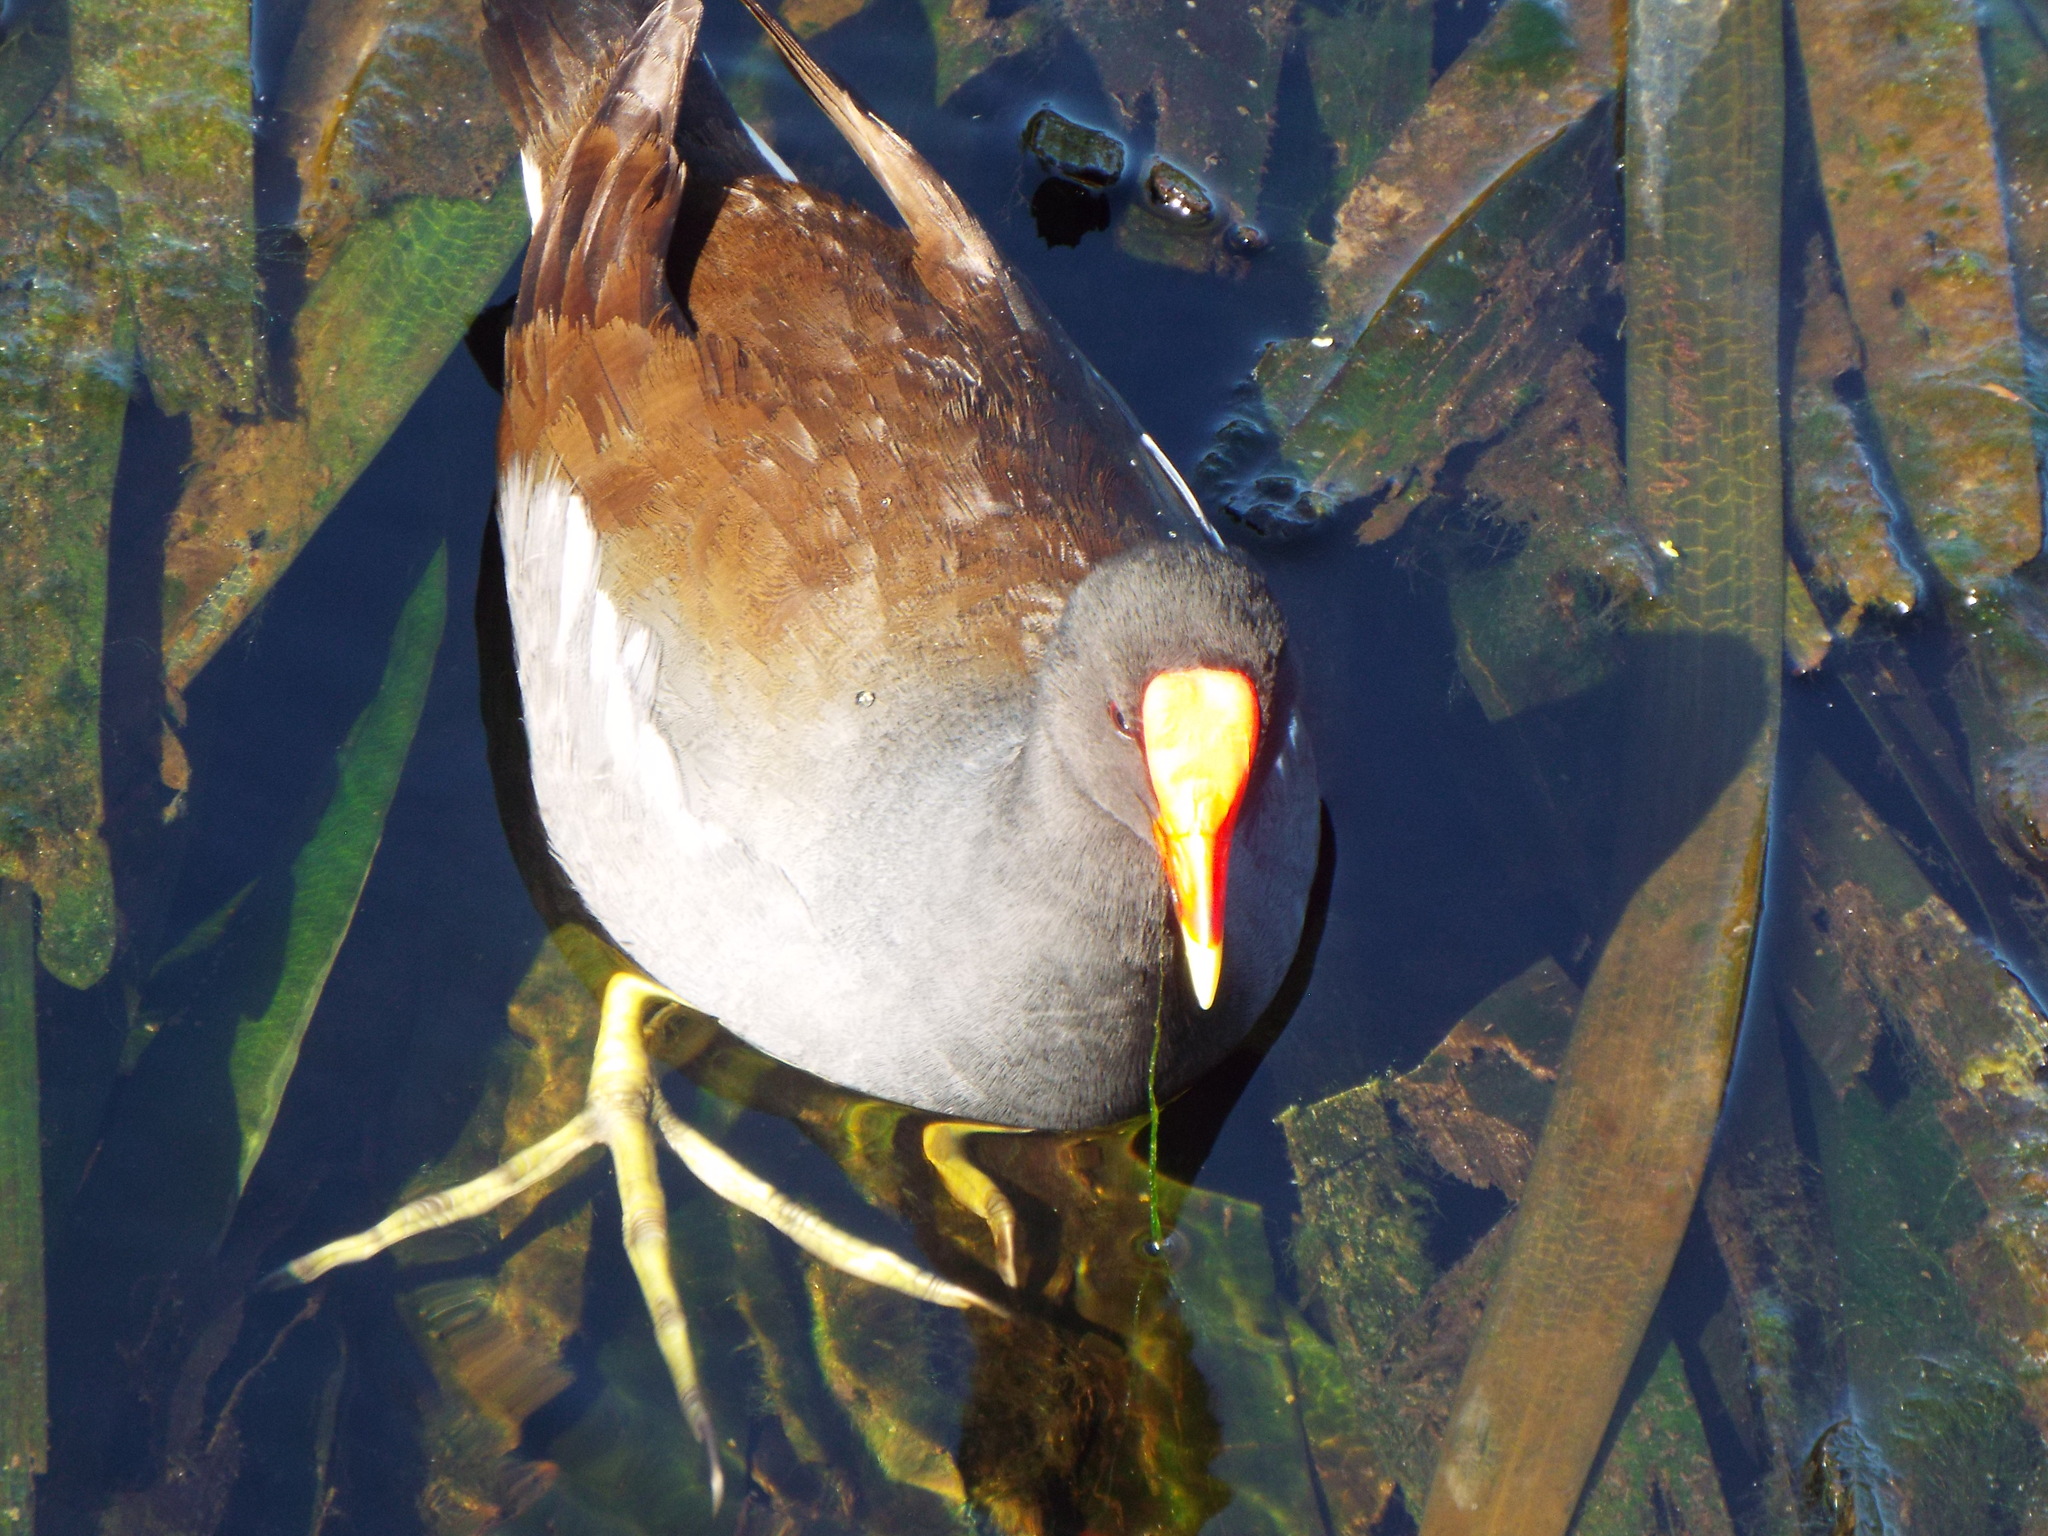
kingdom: Animalia
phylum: Chordata
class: Aves
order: Gruiformes
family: Rallidae
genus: Gallinula
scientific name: Gallinula chloropus
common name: Common moorhen
